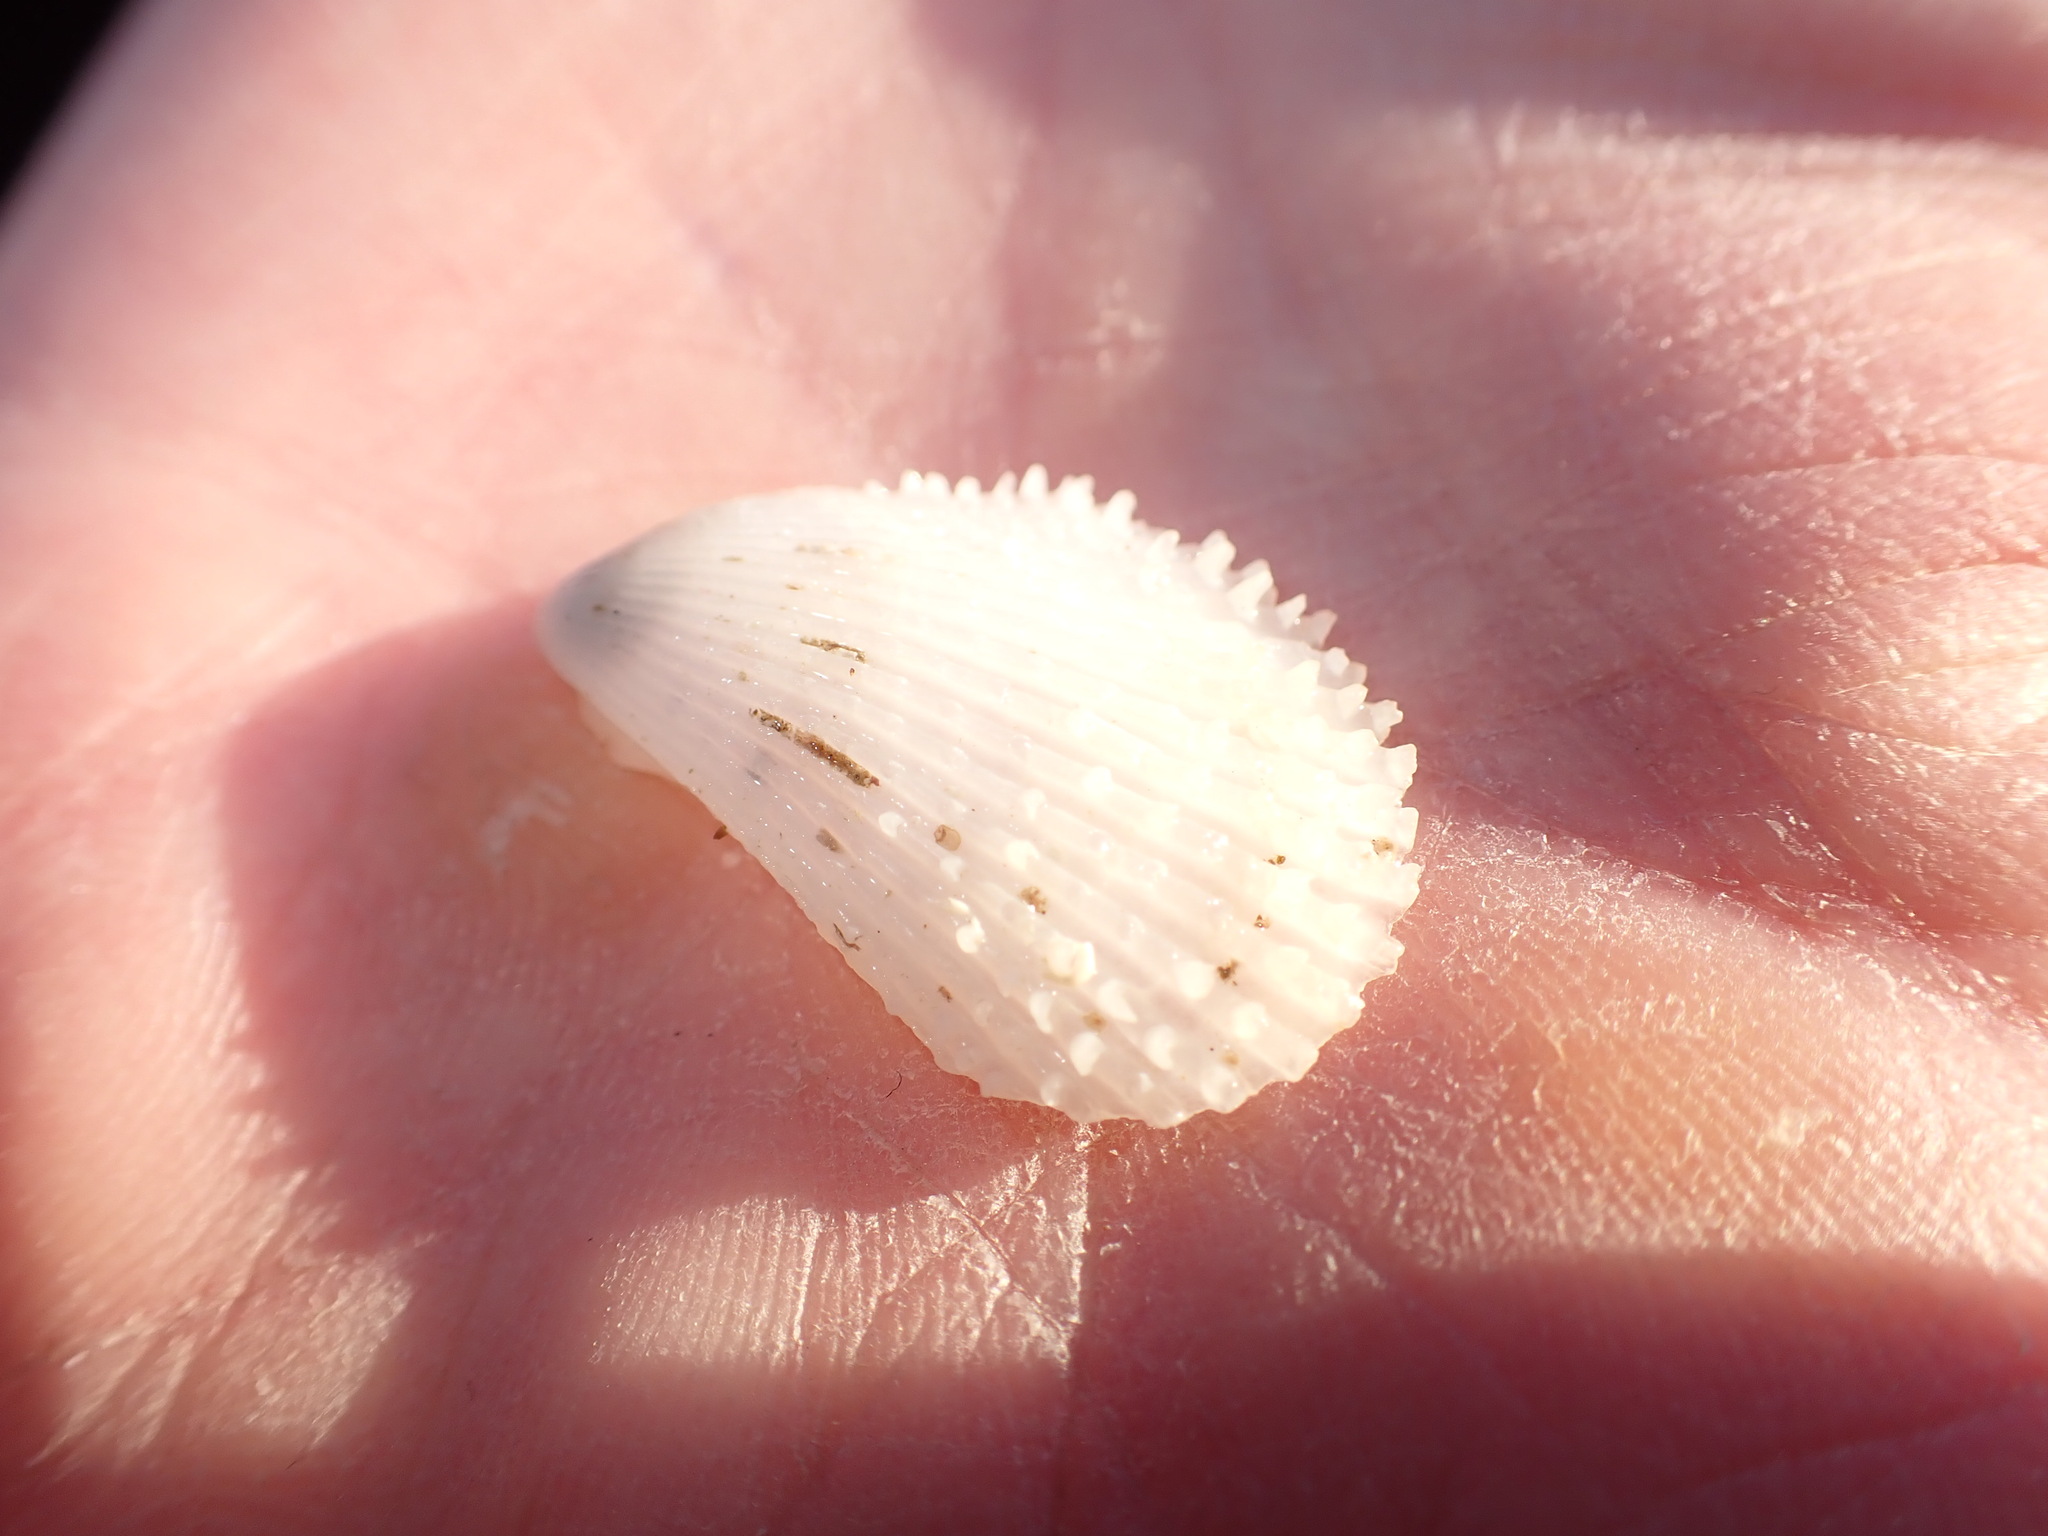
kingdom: Animalia
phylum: Mollusca
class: Bivalvia
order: Limida
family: Limidae
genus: Lima
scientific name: Lima lima
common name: Frilled file shell
